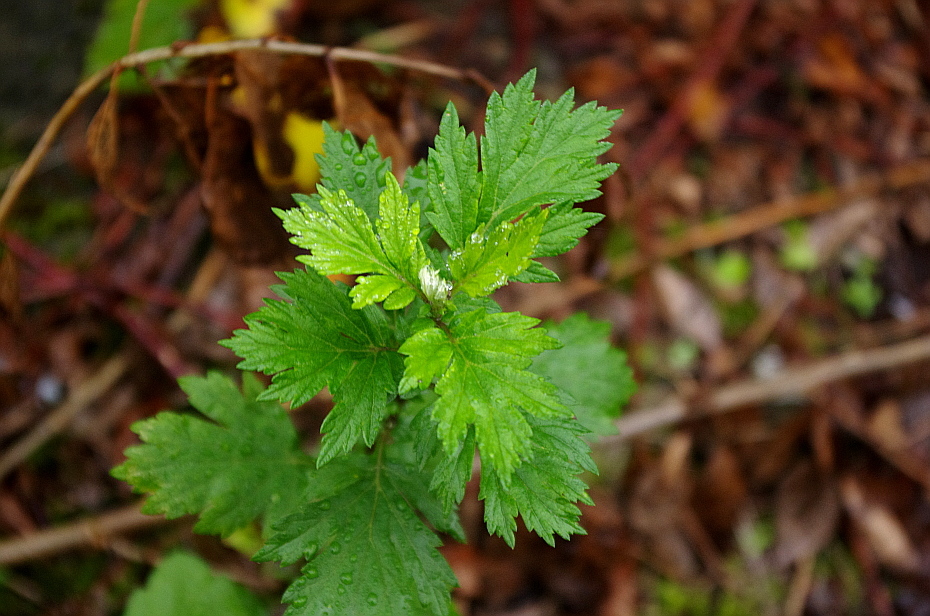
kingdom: Plantae
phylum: Tracheophyta
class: Magnoliopsida
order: Asterales
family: Asteraceae
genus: Artemisia
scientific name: Artemisia vulgaris
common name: Mugwort
